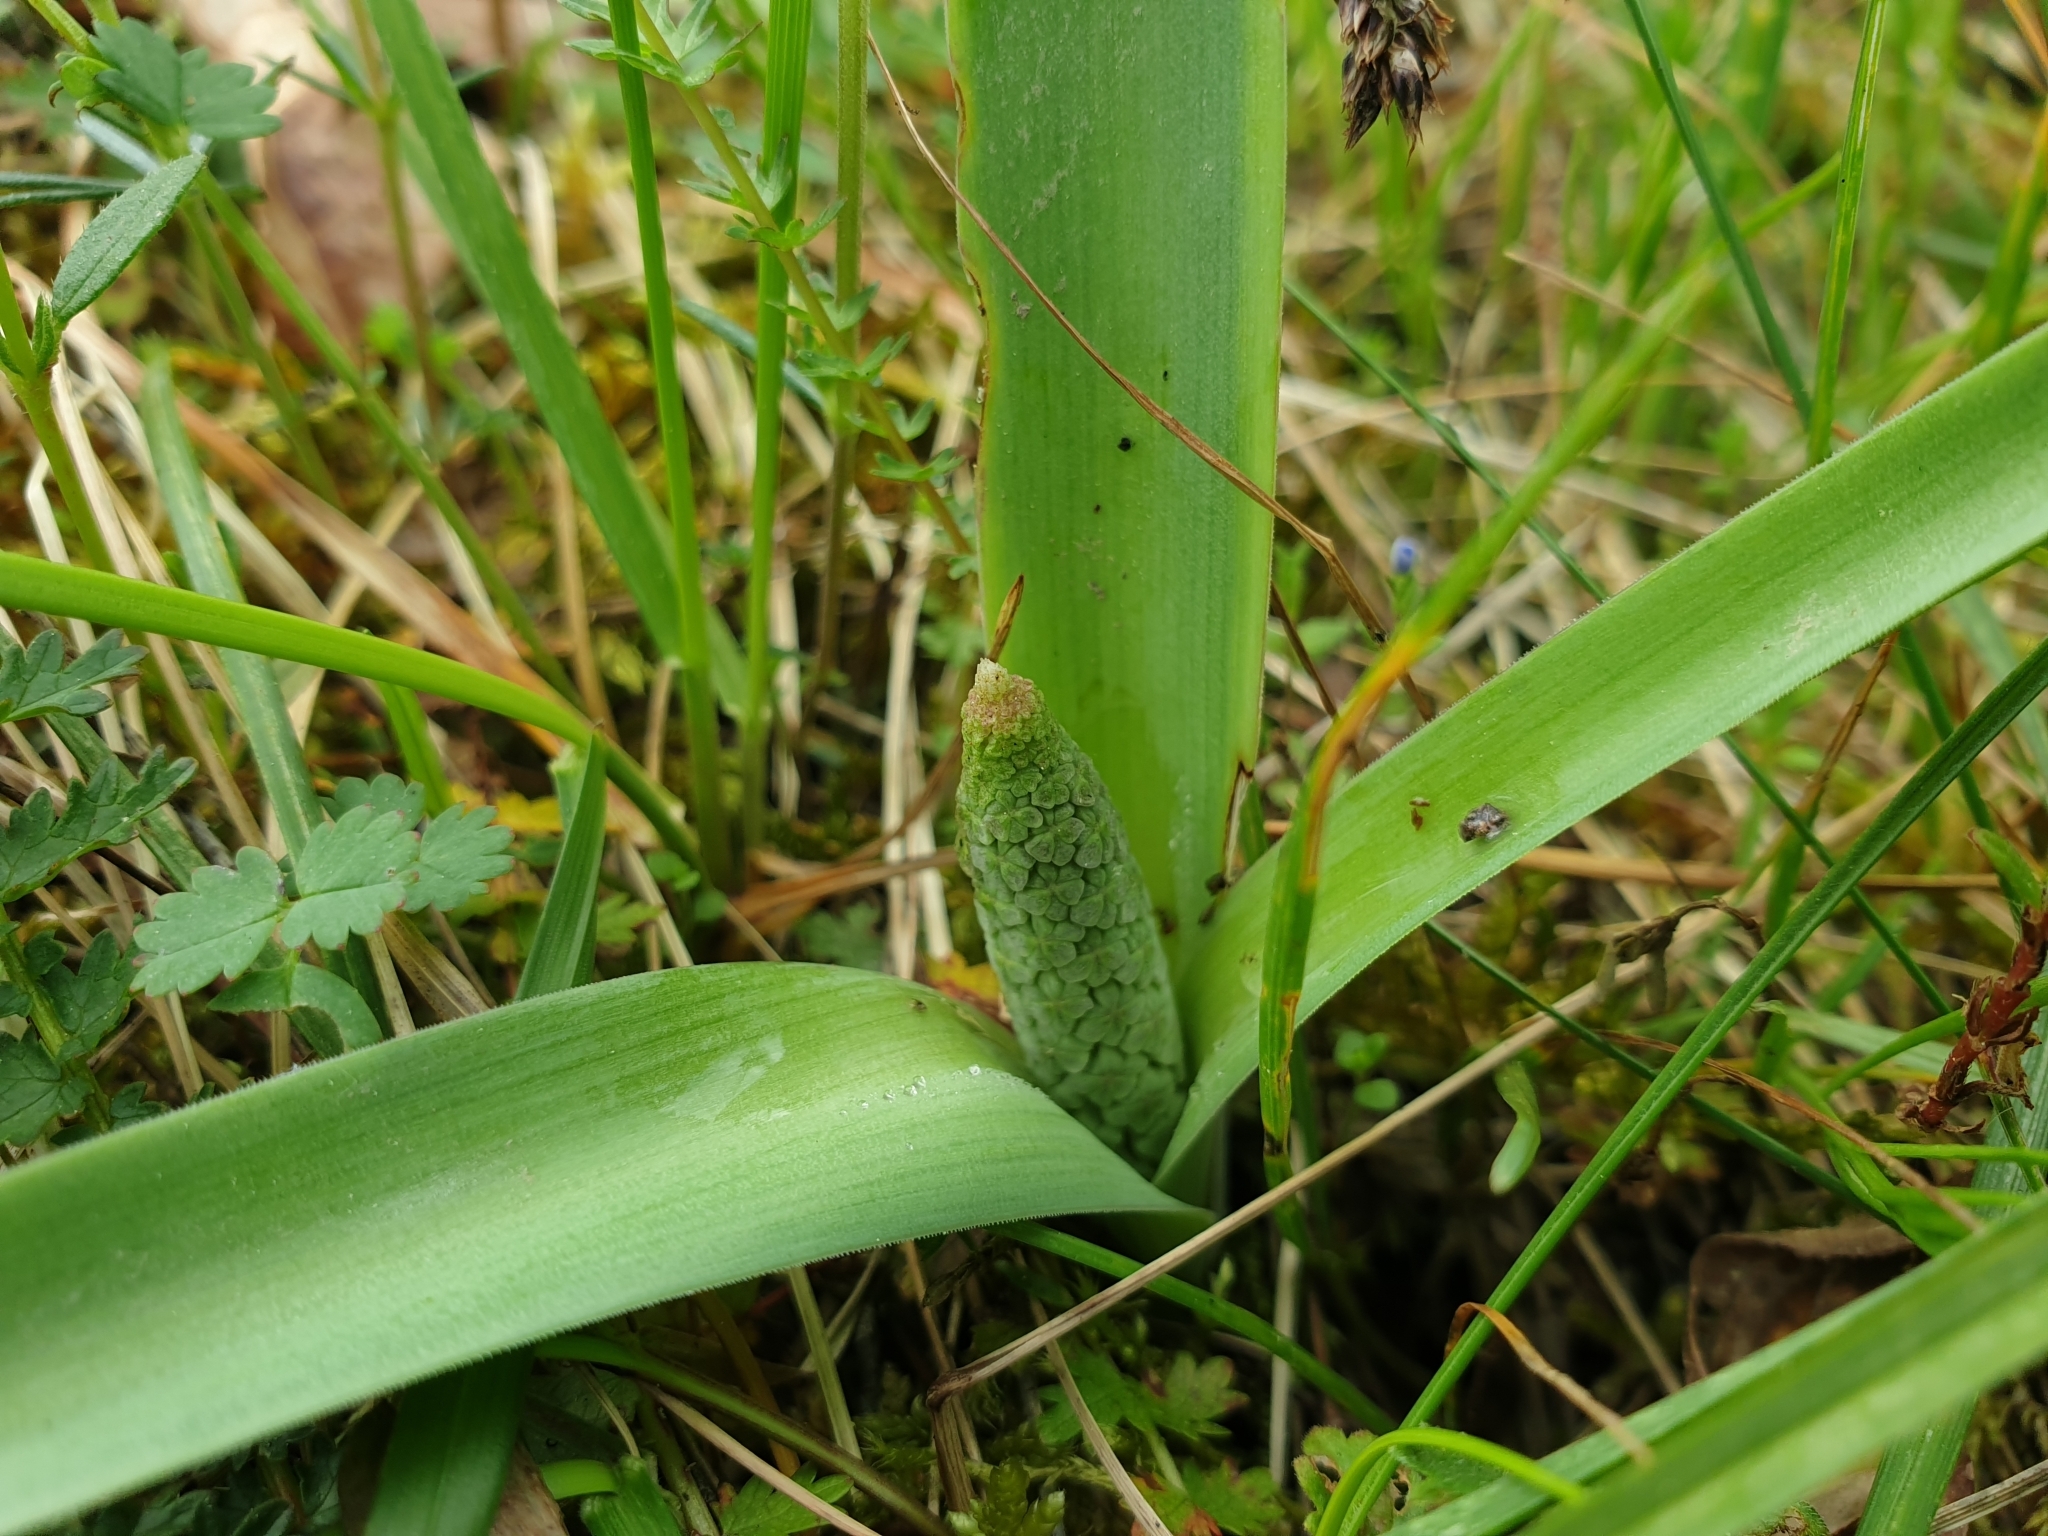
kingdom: Plantae
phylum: Tracheophyta
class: Liliopsida
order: Asparagales
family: Asparagaceae
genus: Muscari
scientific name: Muscari comosum
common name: Tassel hyacinth
